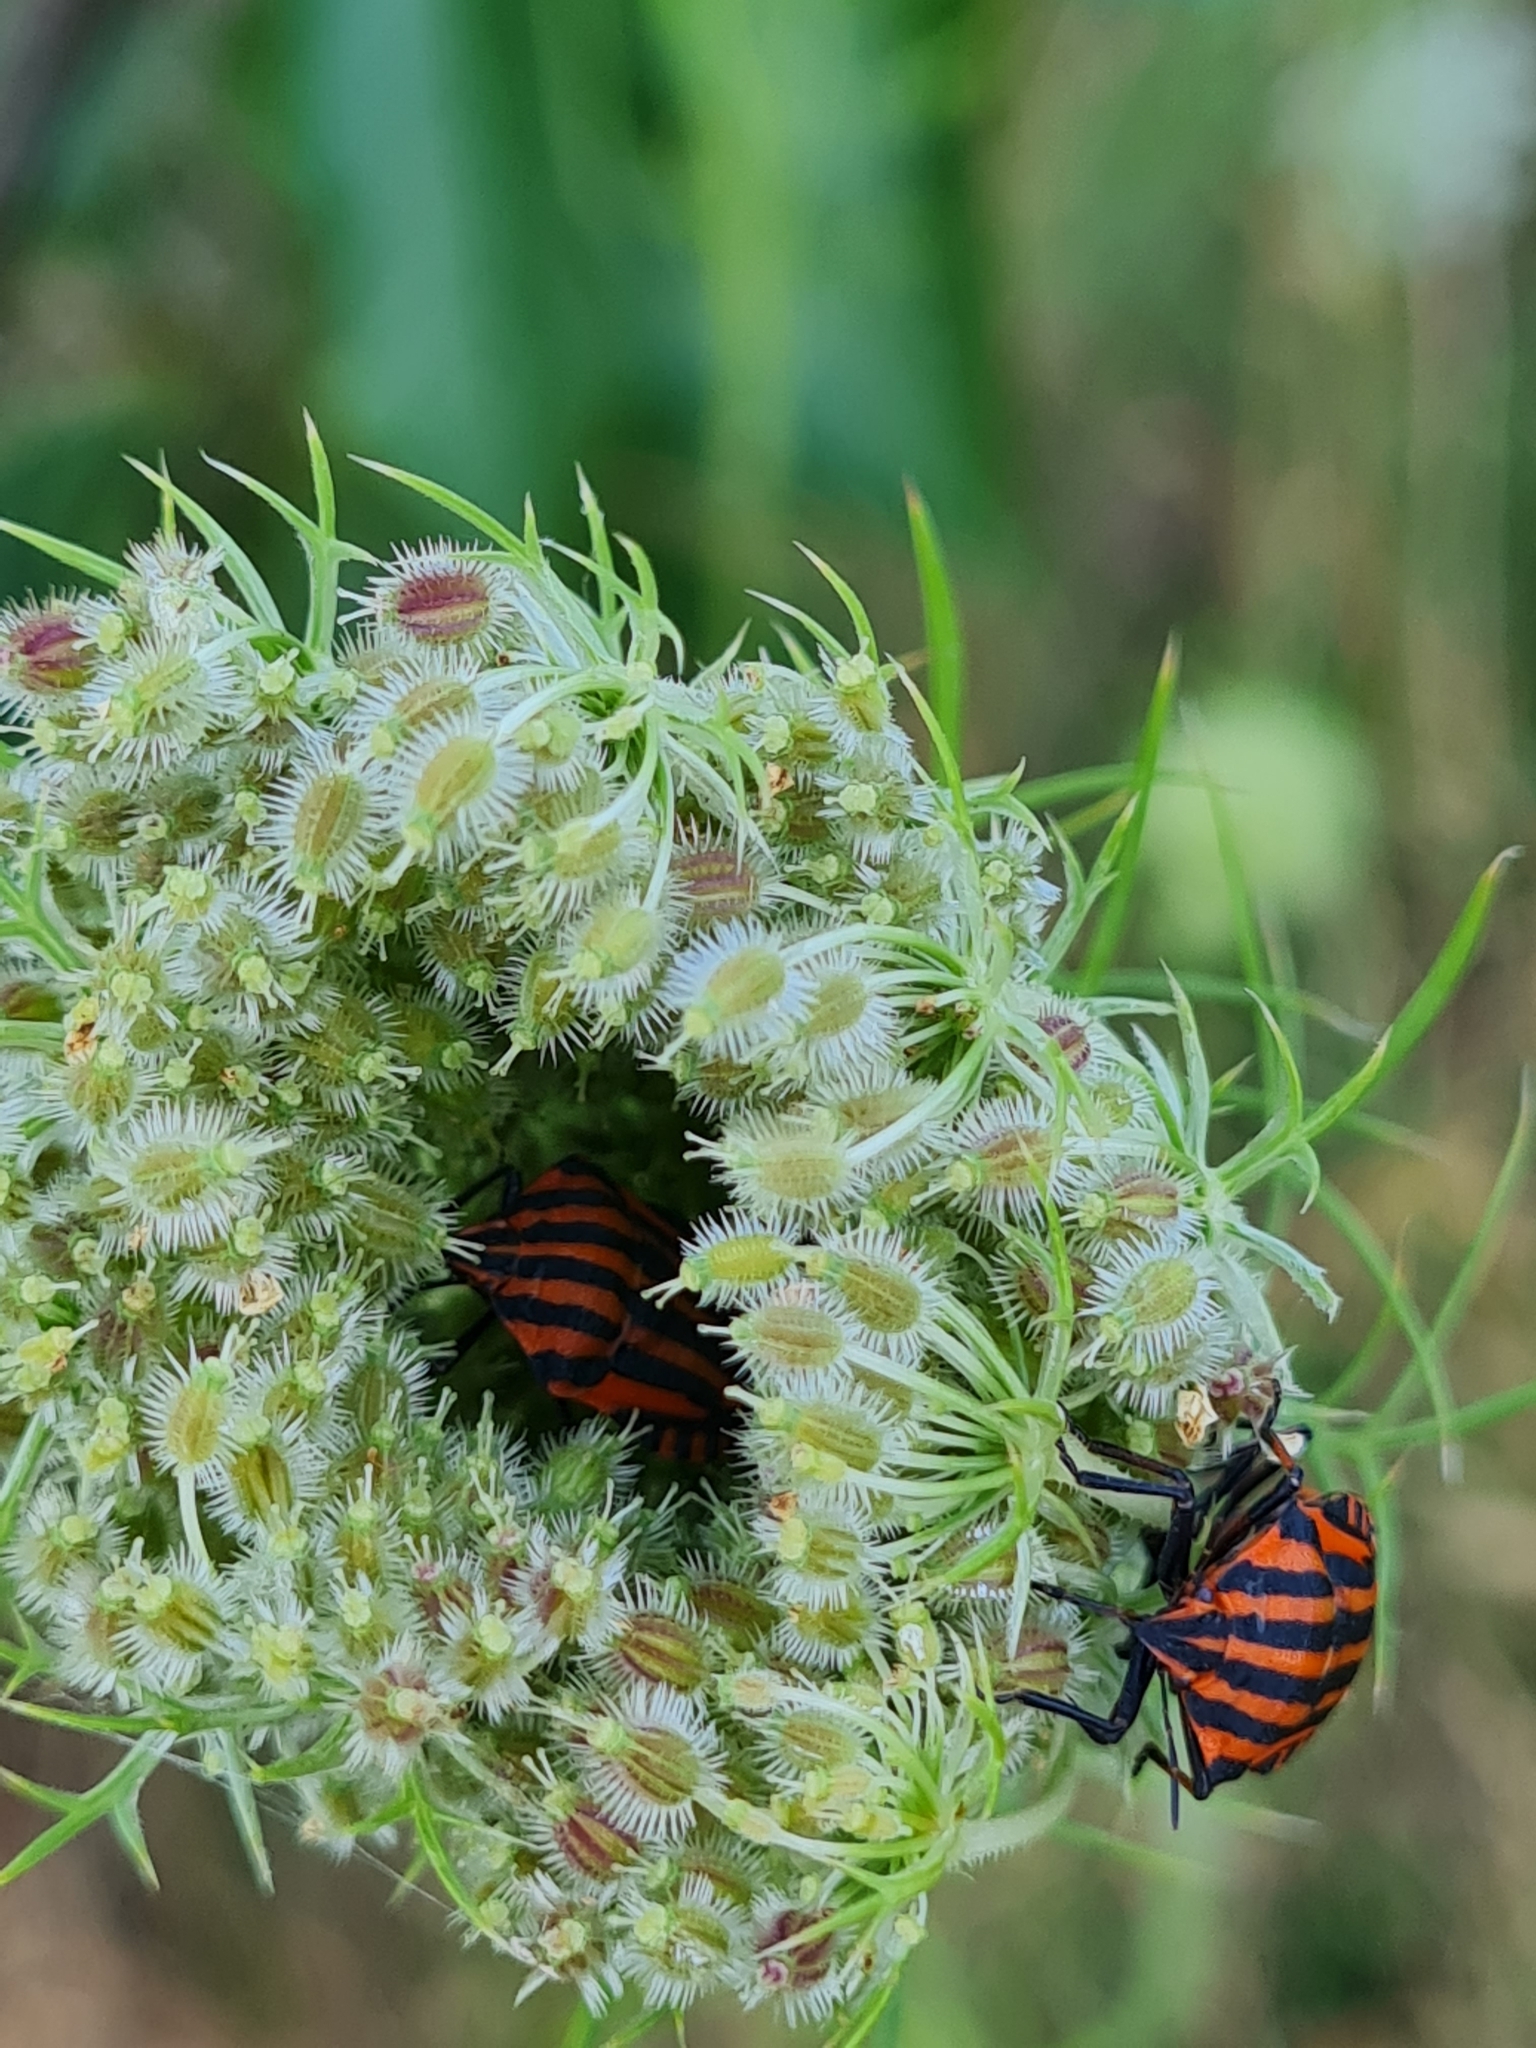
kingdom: Animalia
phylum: Arthropoda
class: Insecta
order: Hemiptera
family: Pentatomidae
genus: Graphosoma
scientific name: Graphosoma italicum
